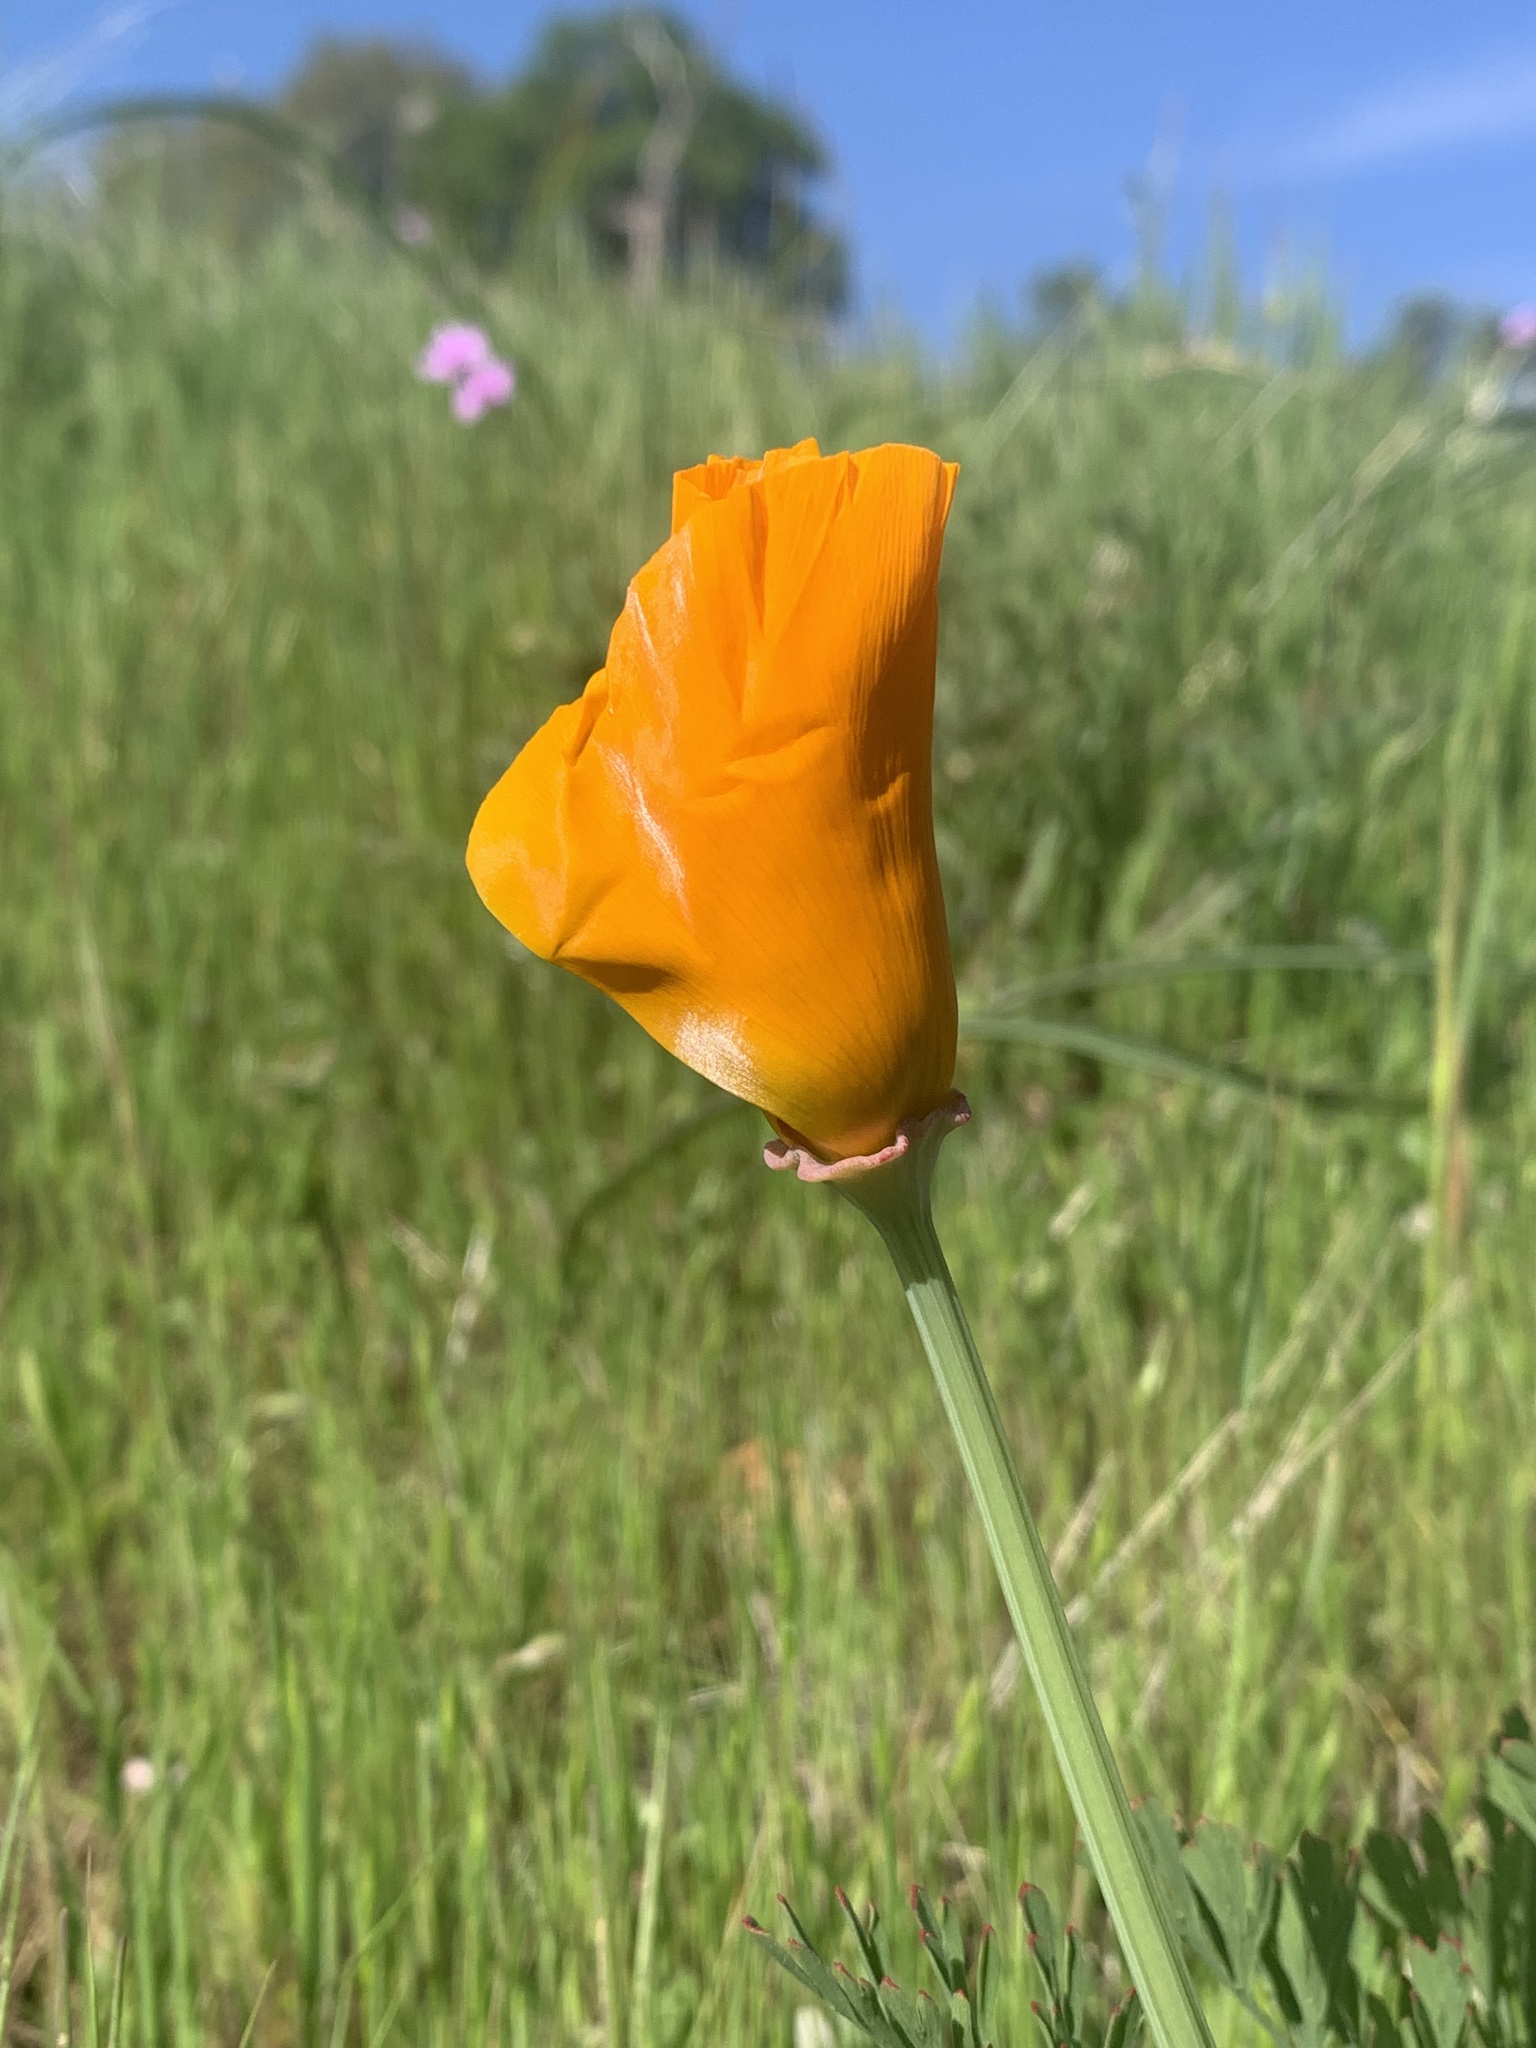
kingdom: Plantae
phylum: Tracheophyta
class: Magnoliopsida
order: Ranunculales
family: Papaveraceae
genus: Eschscholzia
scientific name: Eschscholzia californica
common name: California poppy
